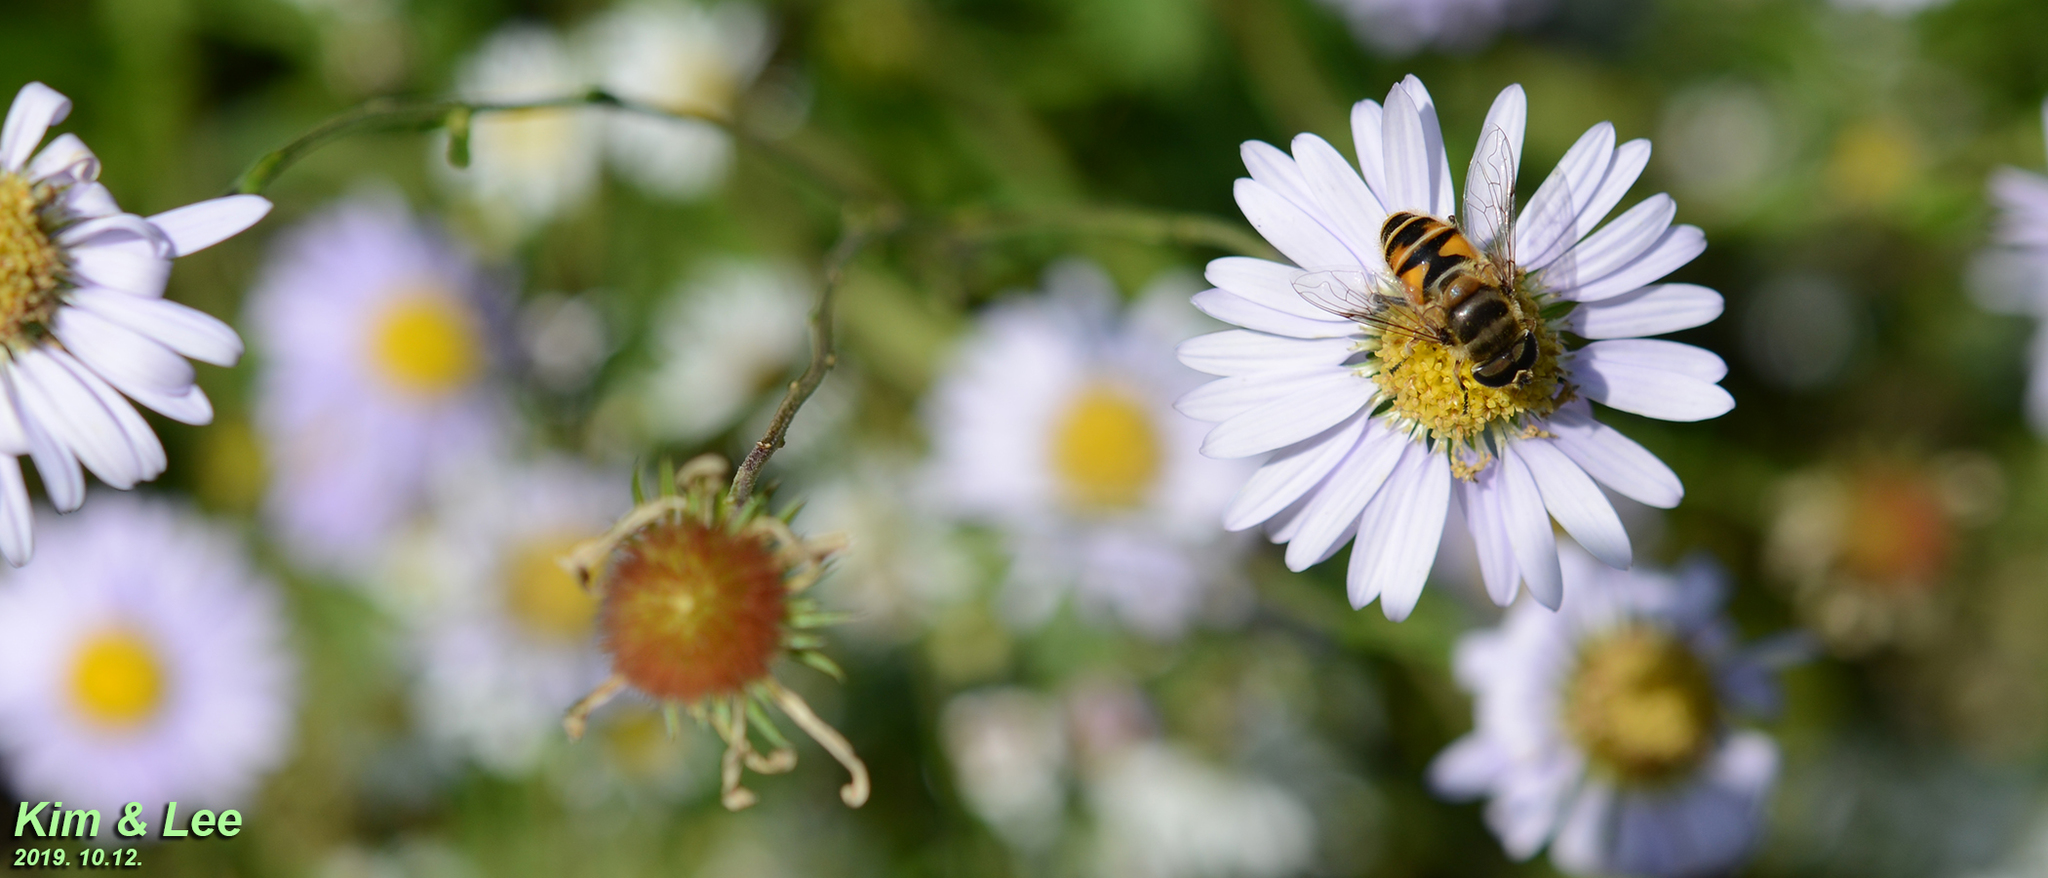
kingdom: Animalia
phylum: Arthropoda
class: Insecta
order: Diptera
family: Syrphidae
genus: Eristalis
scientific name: Eristalis cerealis
